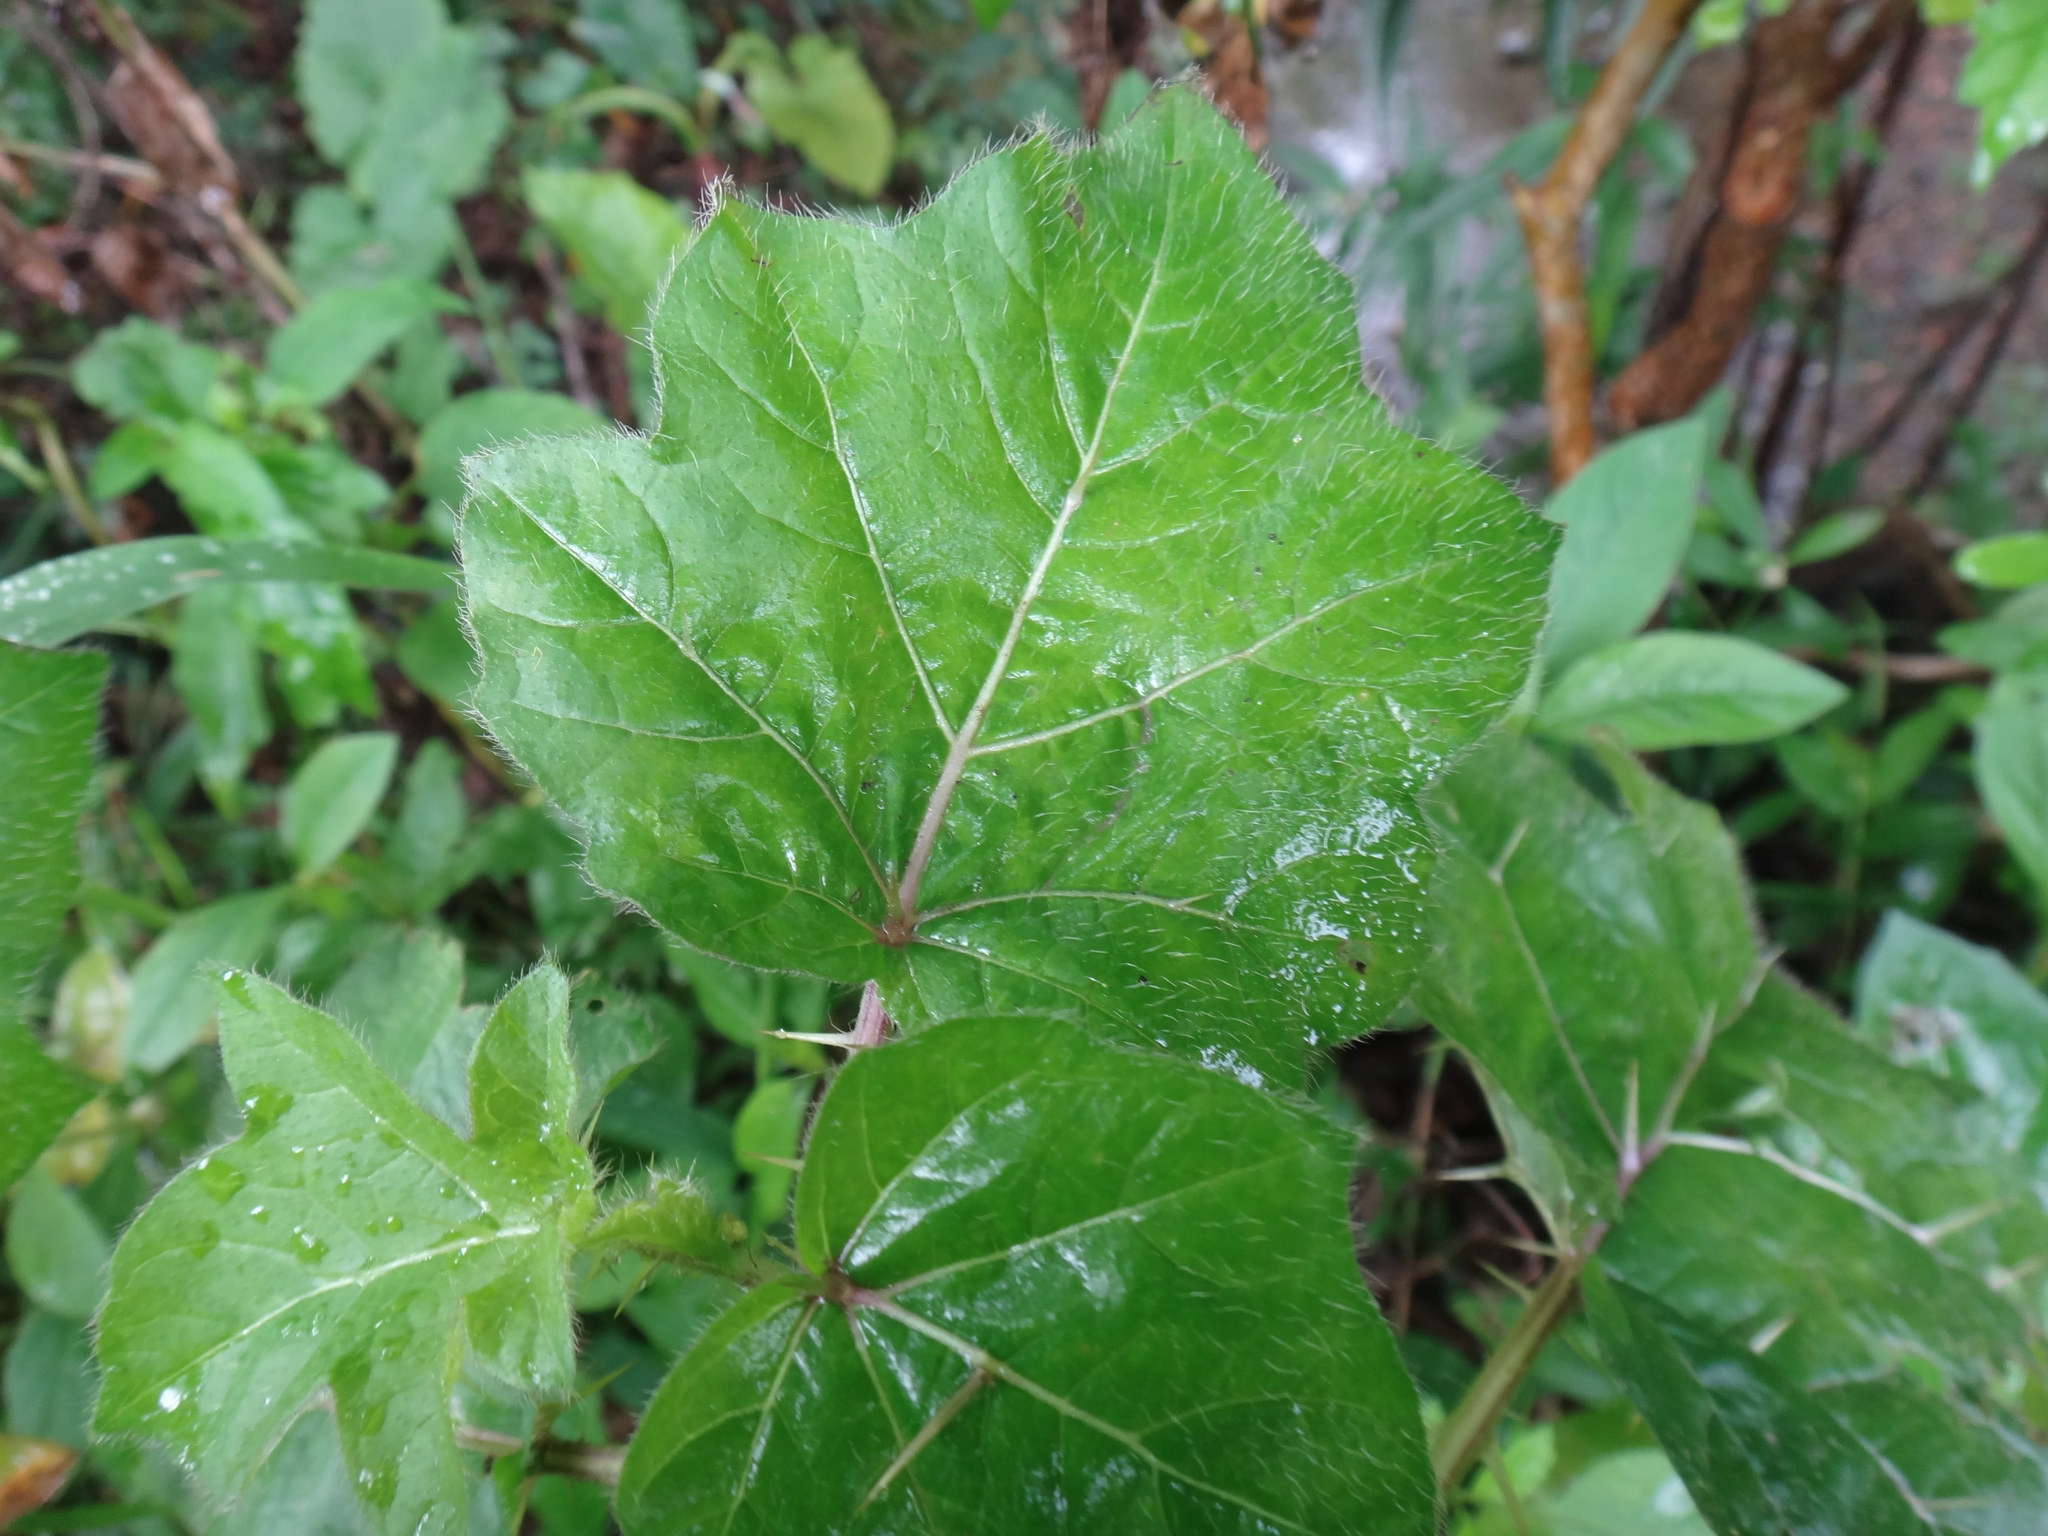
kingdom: Plantae
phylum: Tracheophyta
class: Magnoliopsida
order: Solanales
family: Solanaceae
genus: Solanum
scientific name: Solanum capsicoides
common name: Cockroach berry
